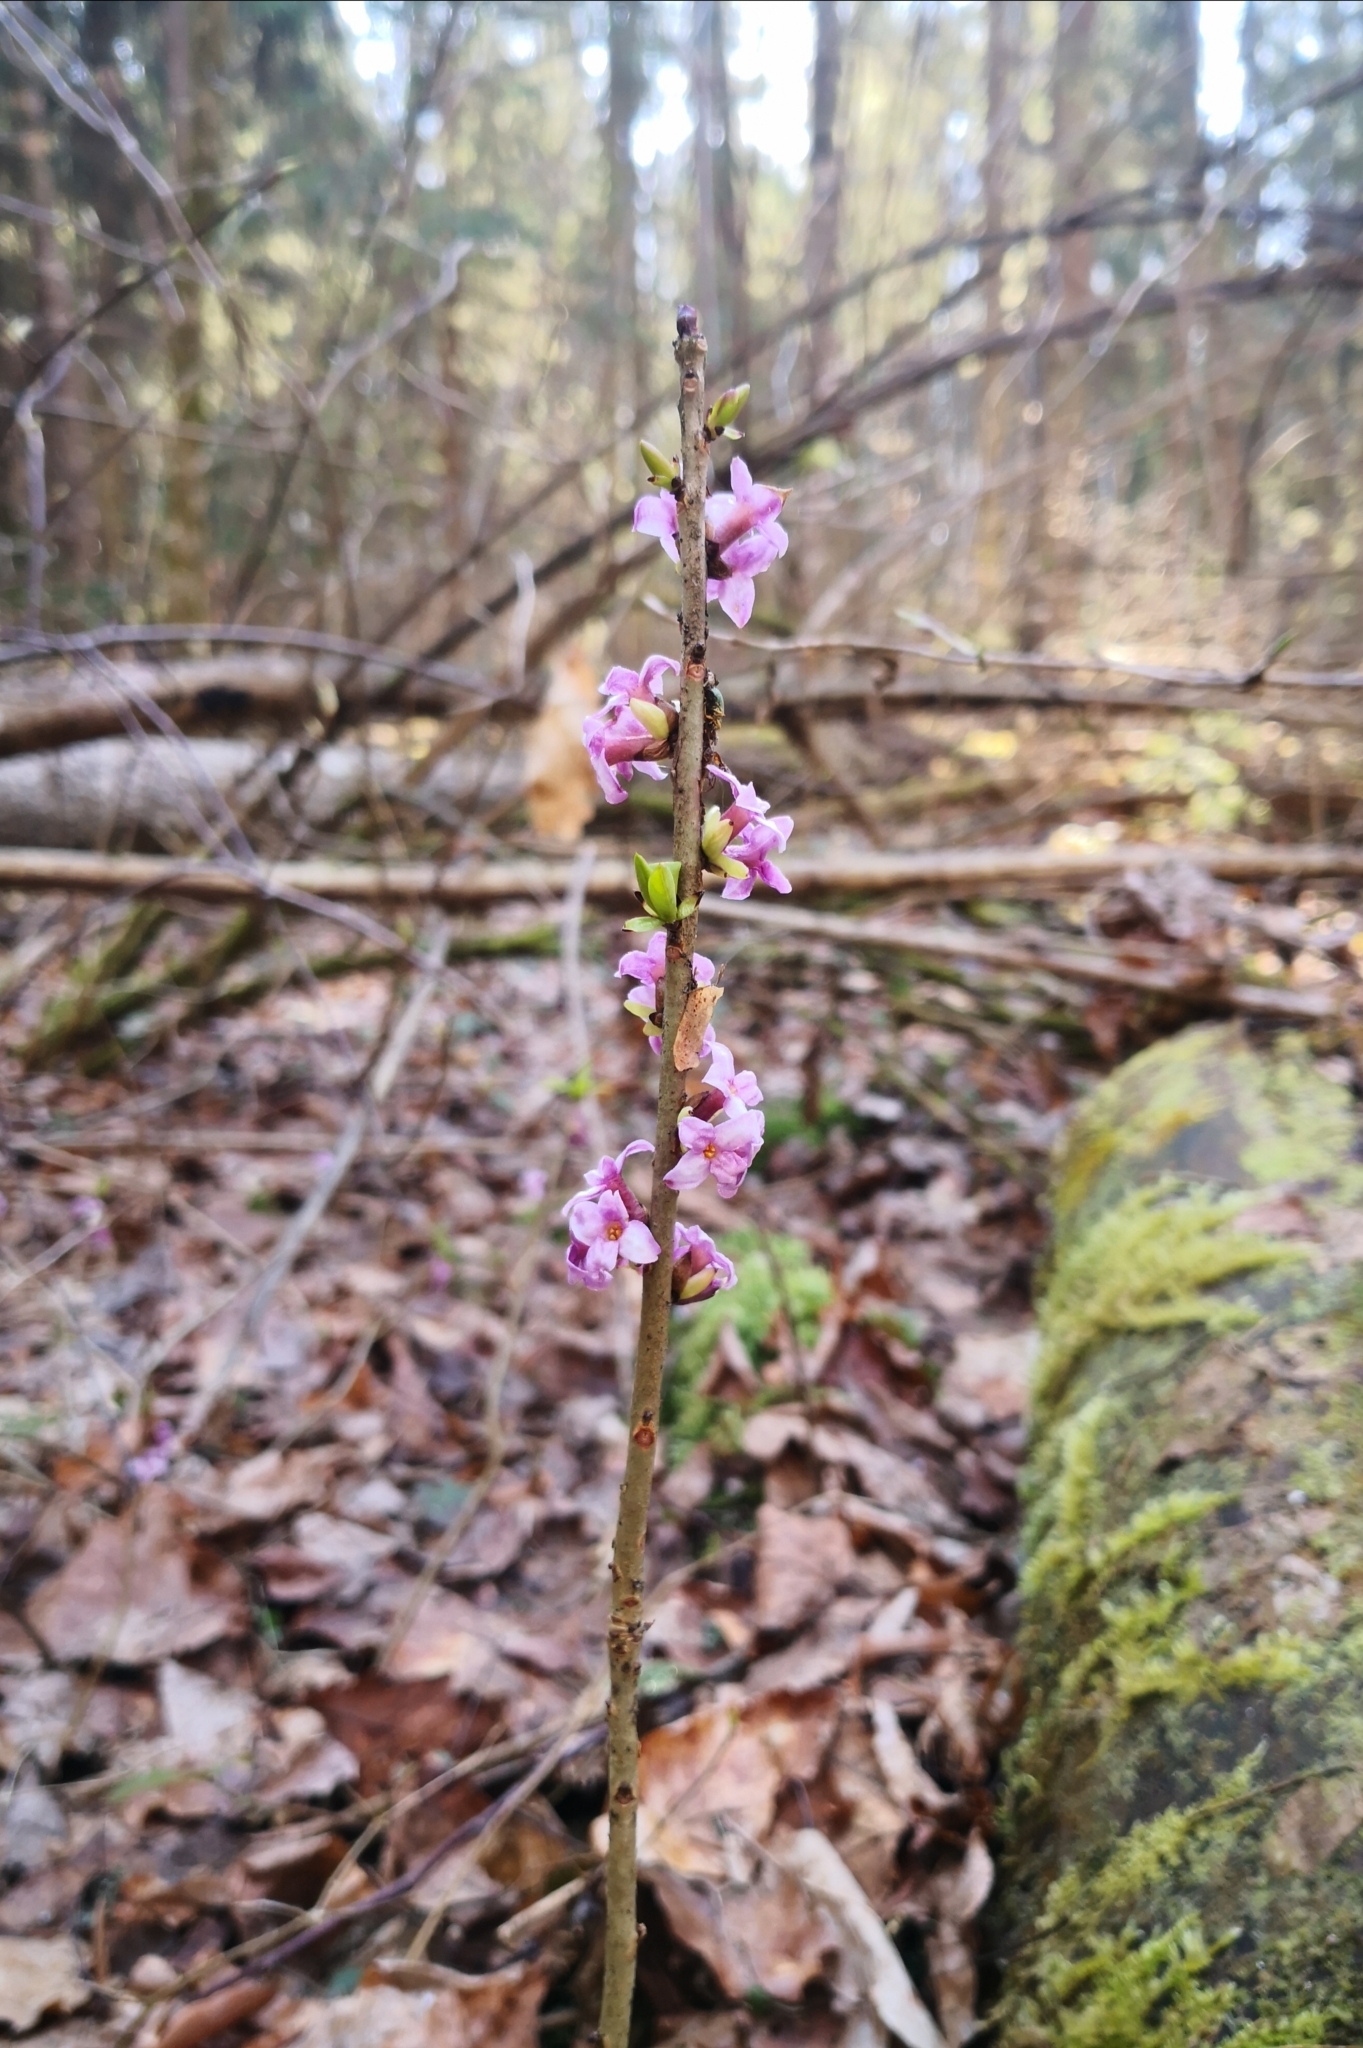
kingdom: Plantae
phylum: Tracheophyta
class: Magnoliopsida
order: Malvales
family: Thymelaeaceae
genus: Daphne
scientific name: Daphne mezereum
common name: Mezereon
